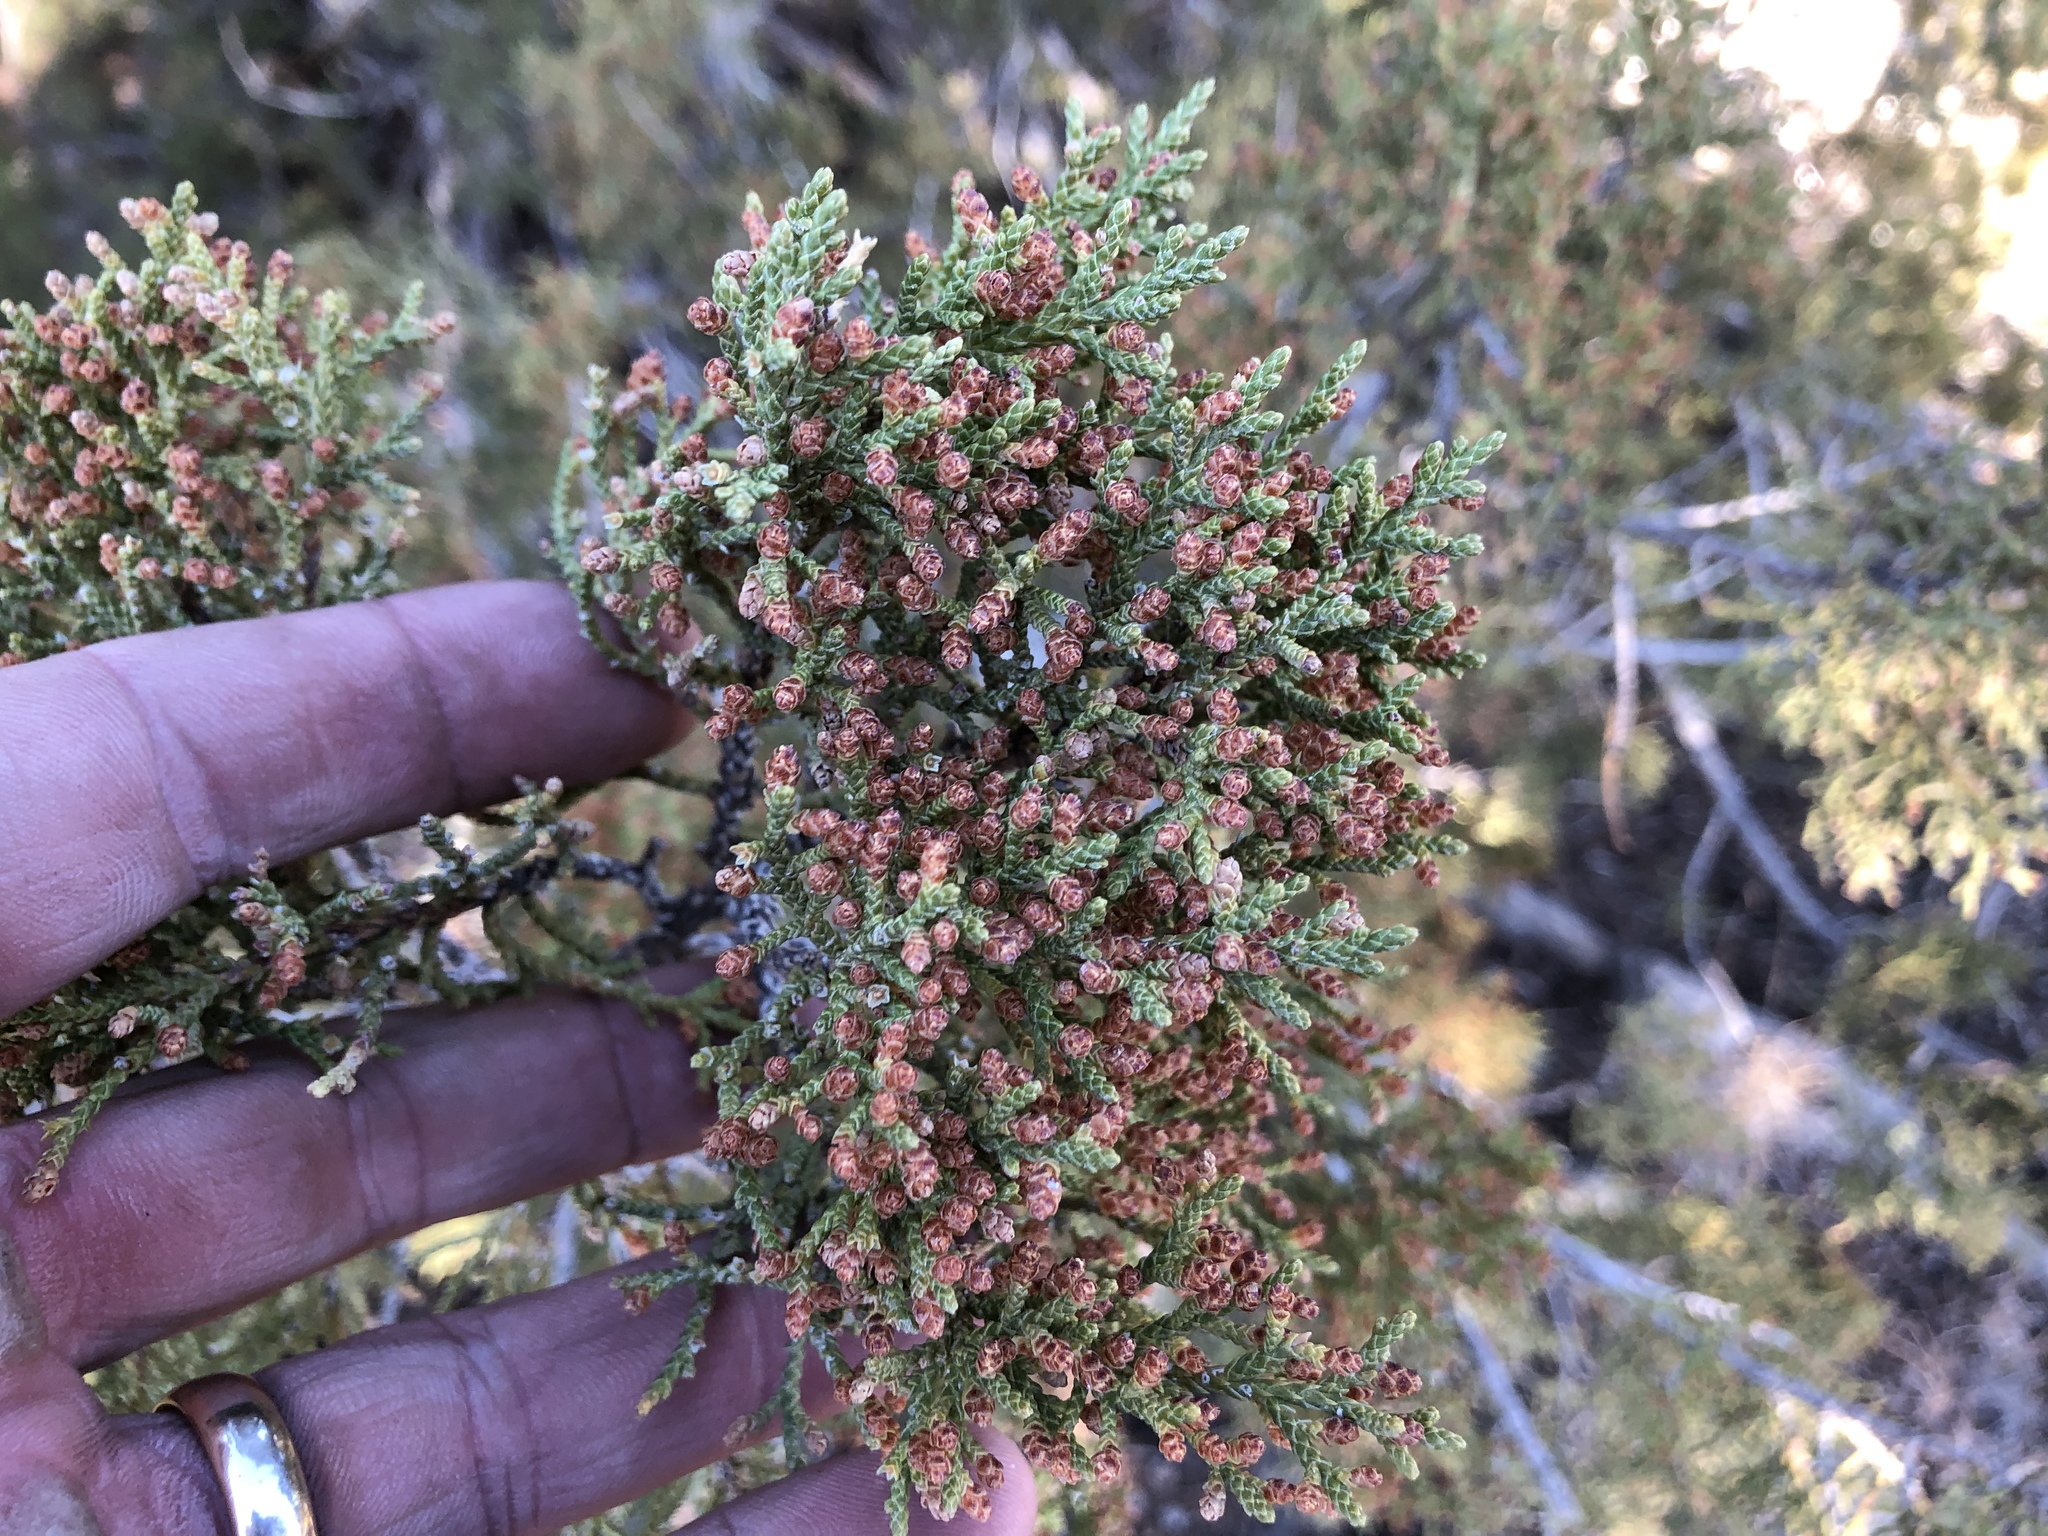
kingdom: Plantae
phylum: Tracheophyta
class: Pinopsida
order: Pinales
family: Cupressaceae
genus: Juniperus
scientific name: Juniperus monosperma
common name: One-seed juniper
